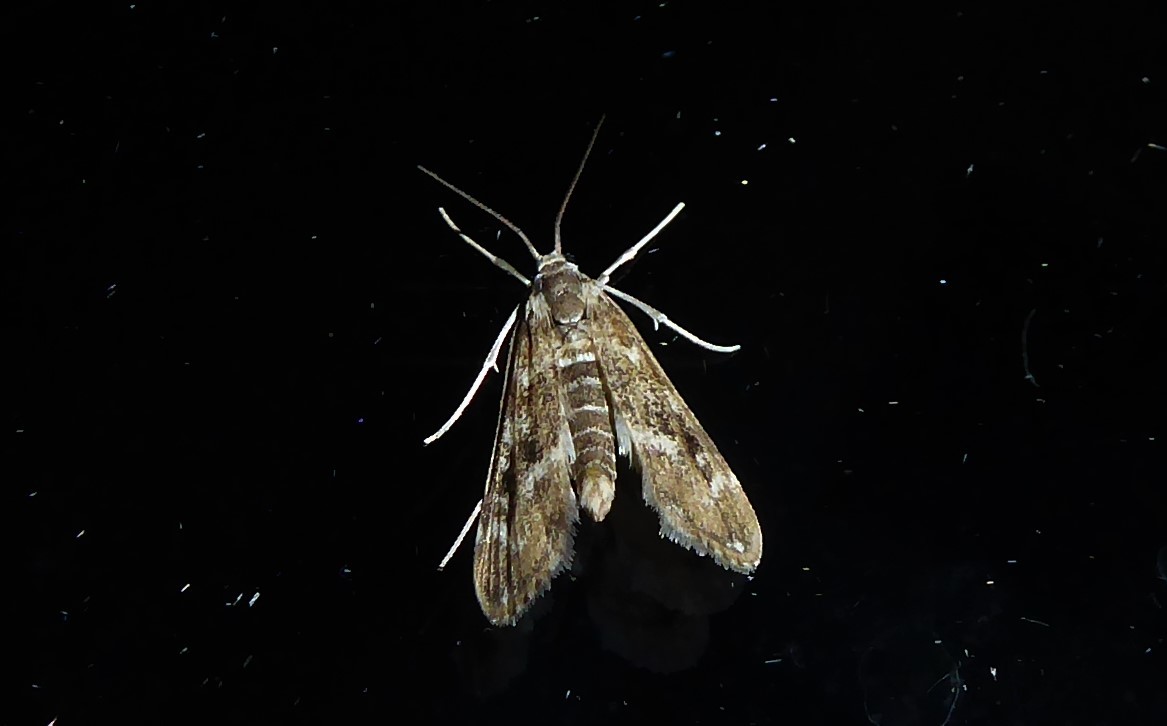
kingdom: Animalia
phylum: Arthropoda
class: Insecta
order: Lepidoptera
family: Crambidae
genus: Hygraula
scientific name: Hygraula nitens
